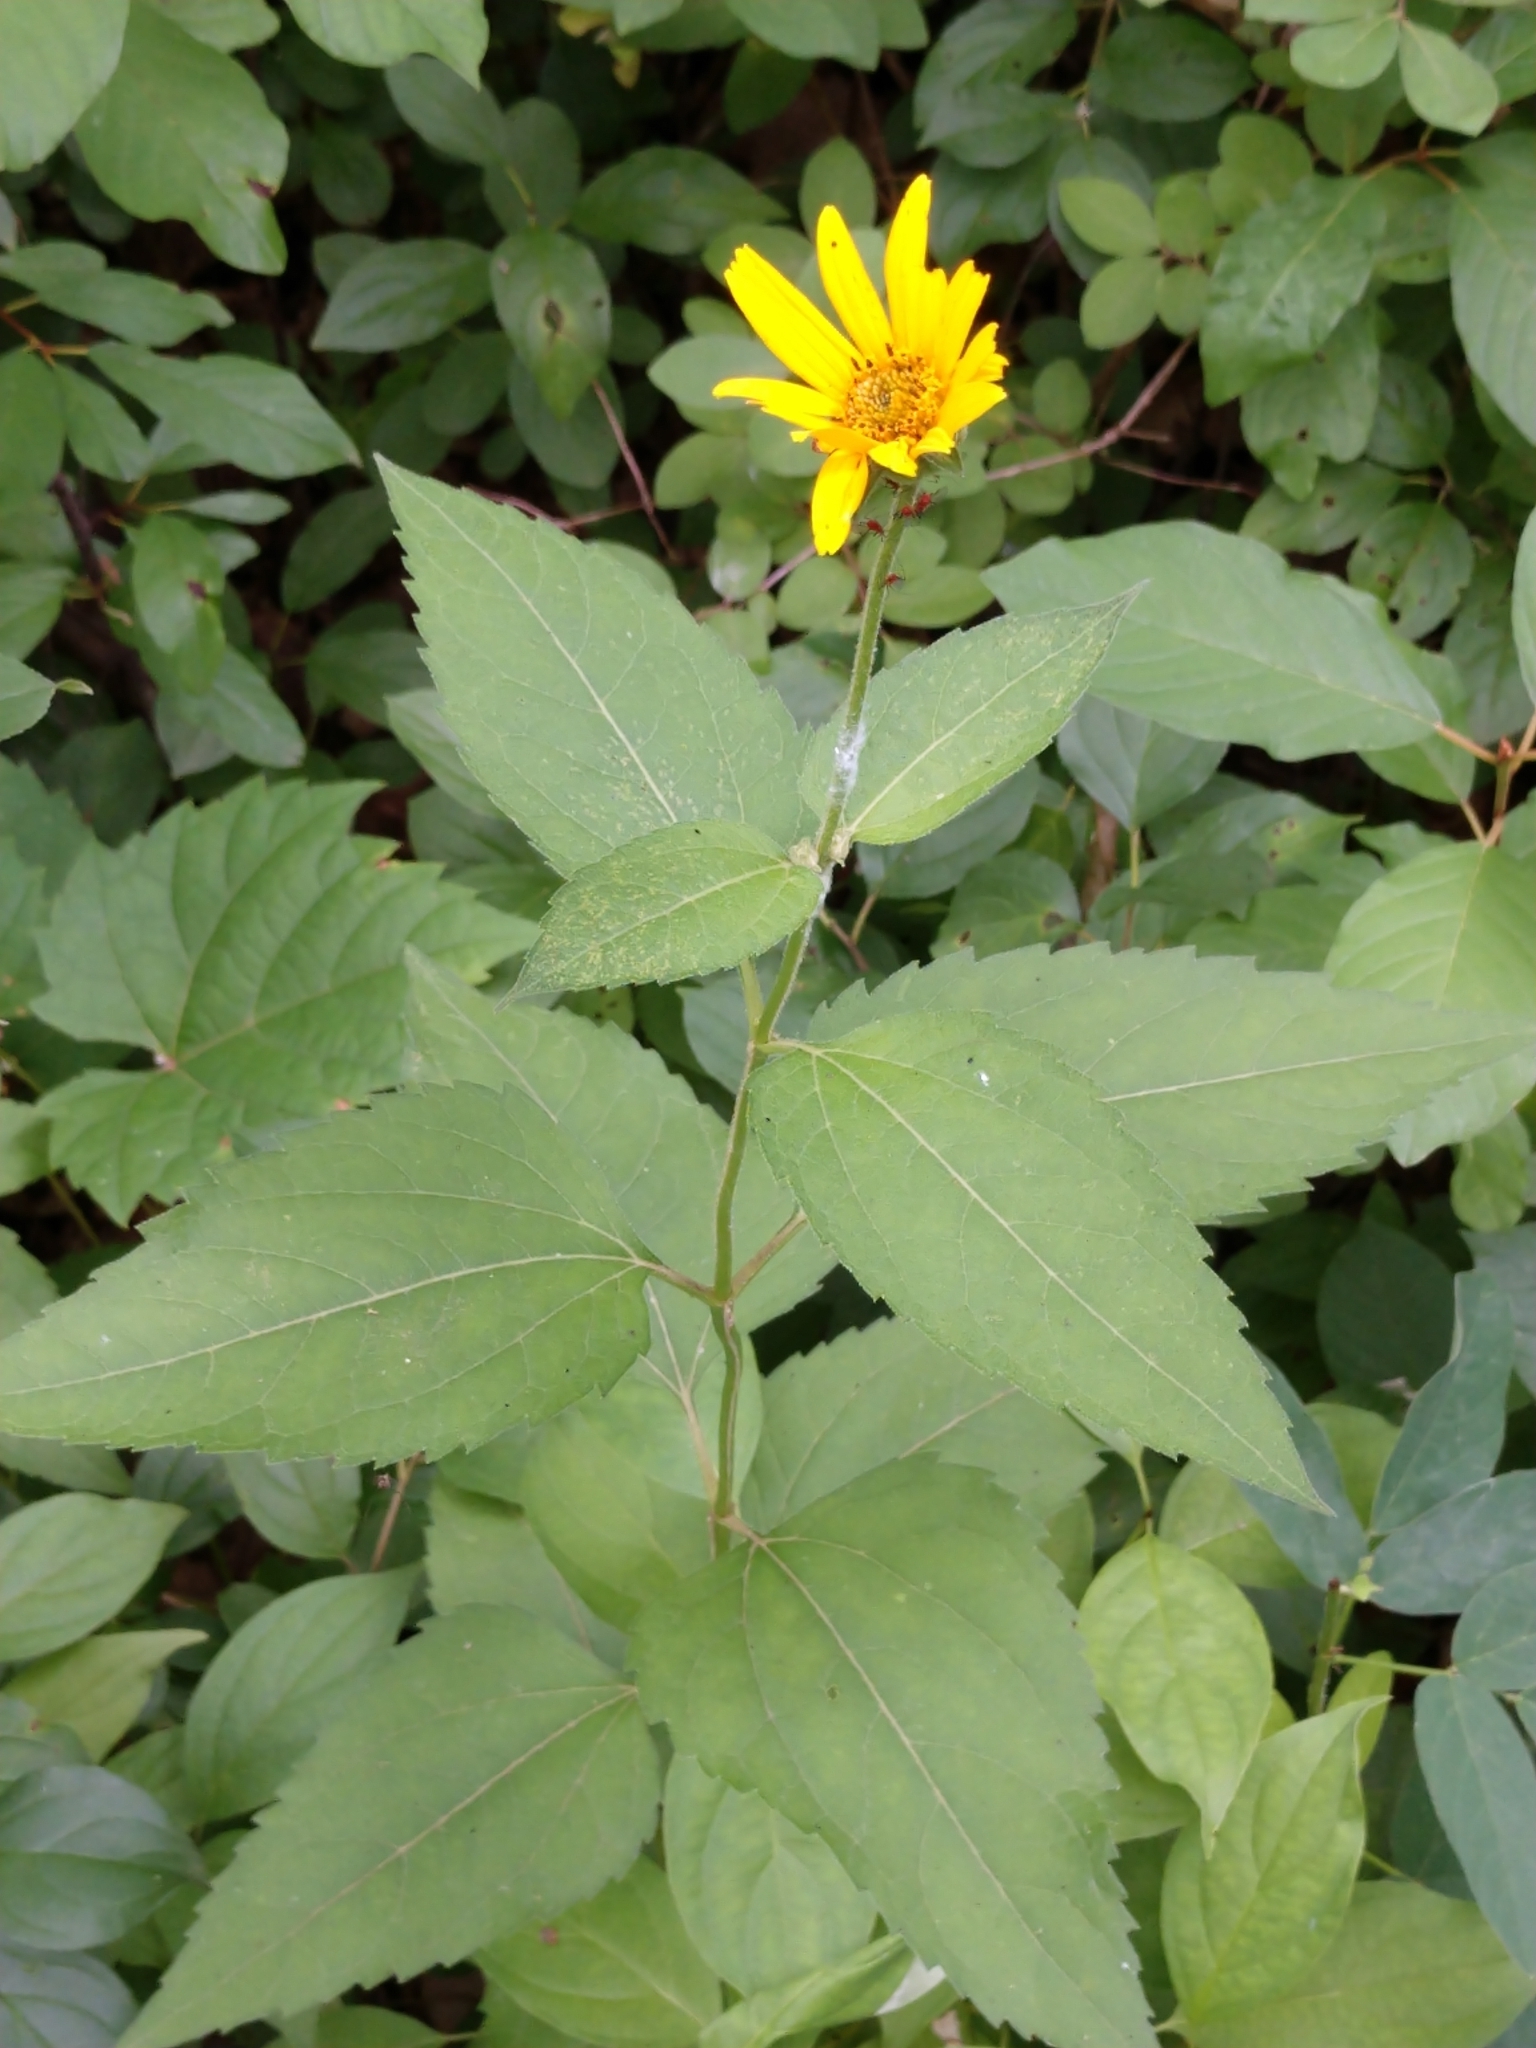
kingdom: Plantae
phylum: Tracheophyta
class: Magnoliopsida
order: Asterales
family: Asteraceae
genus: Heliopsis
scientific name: Heliopsis helianthoides
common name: False sunflower
